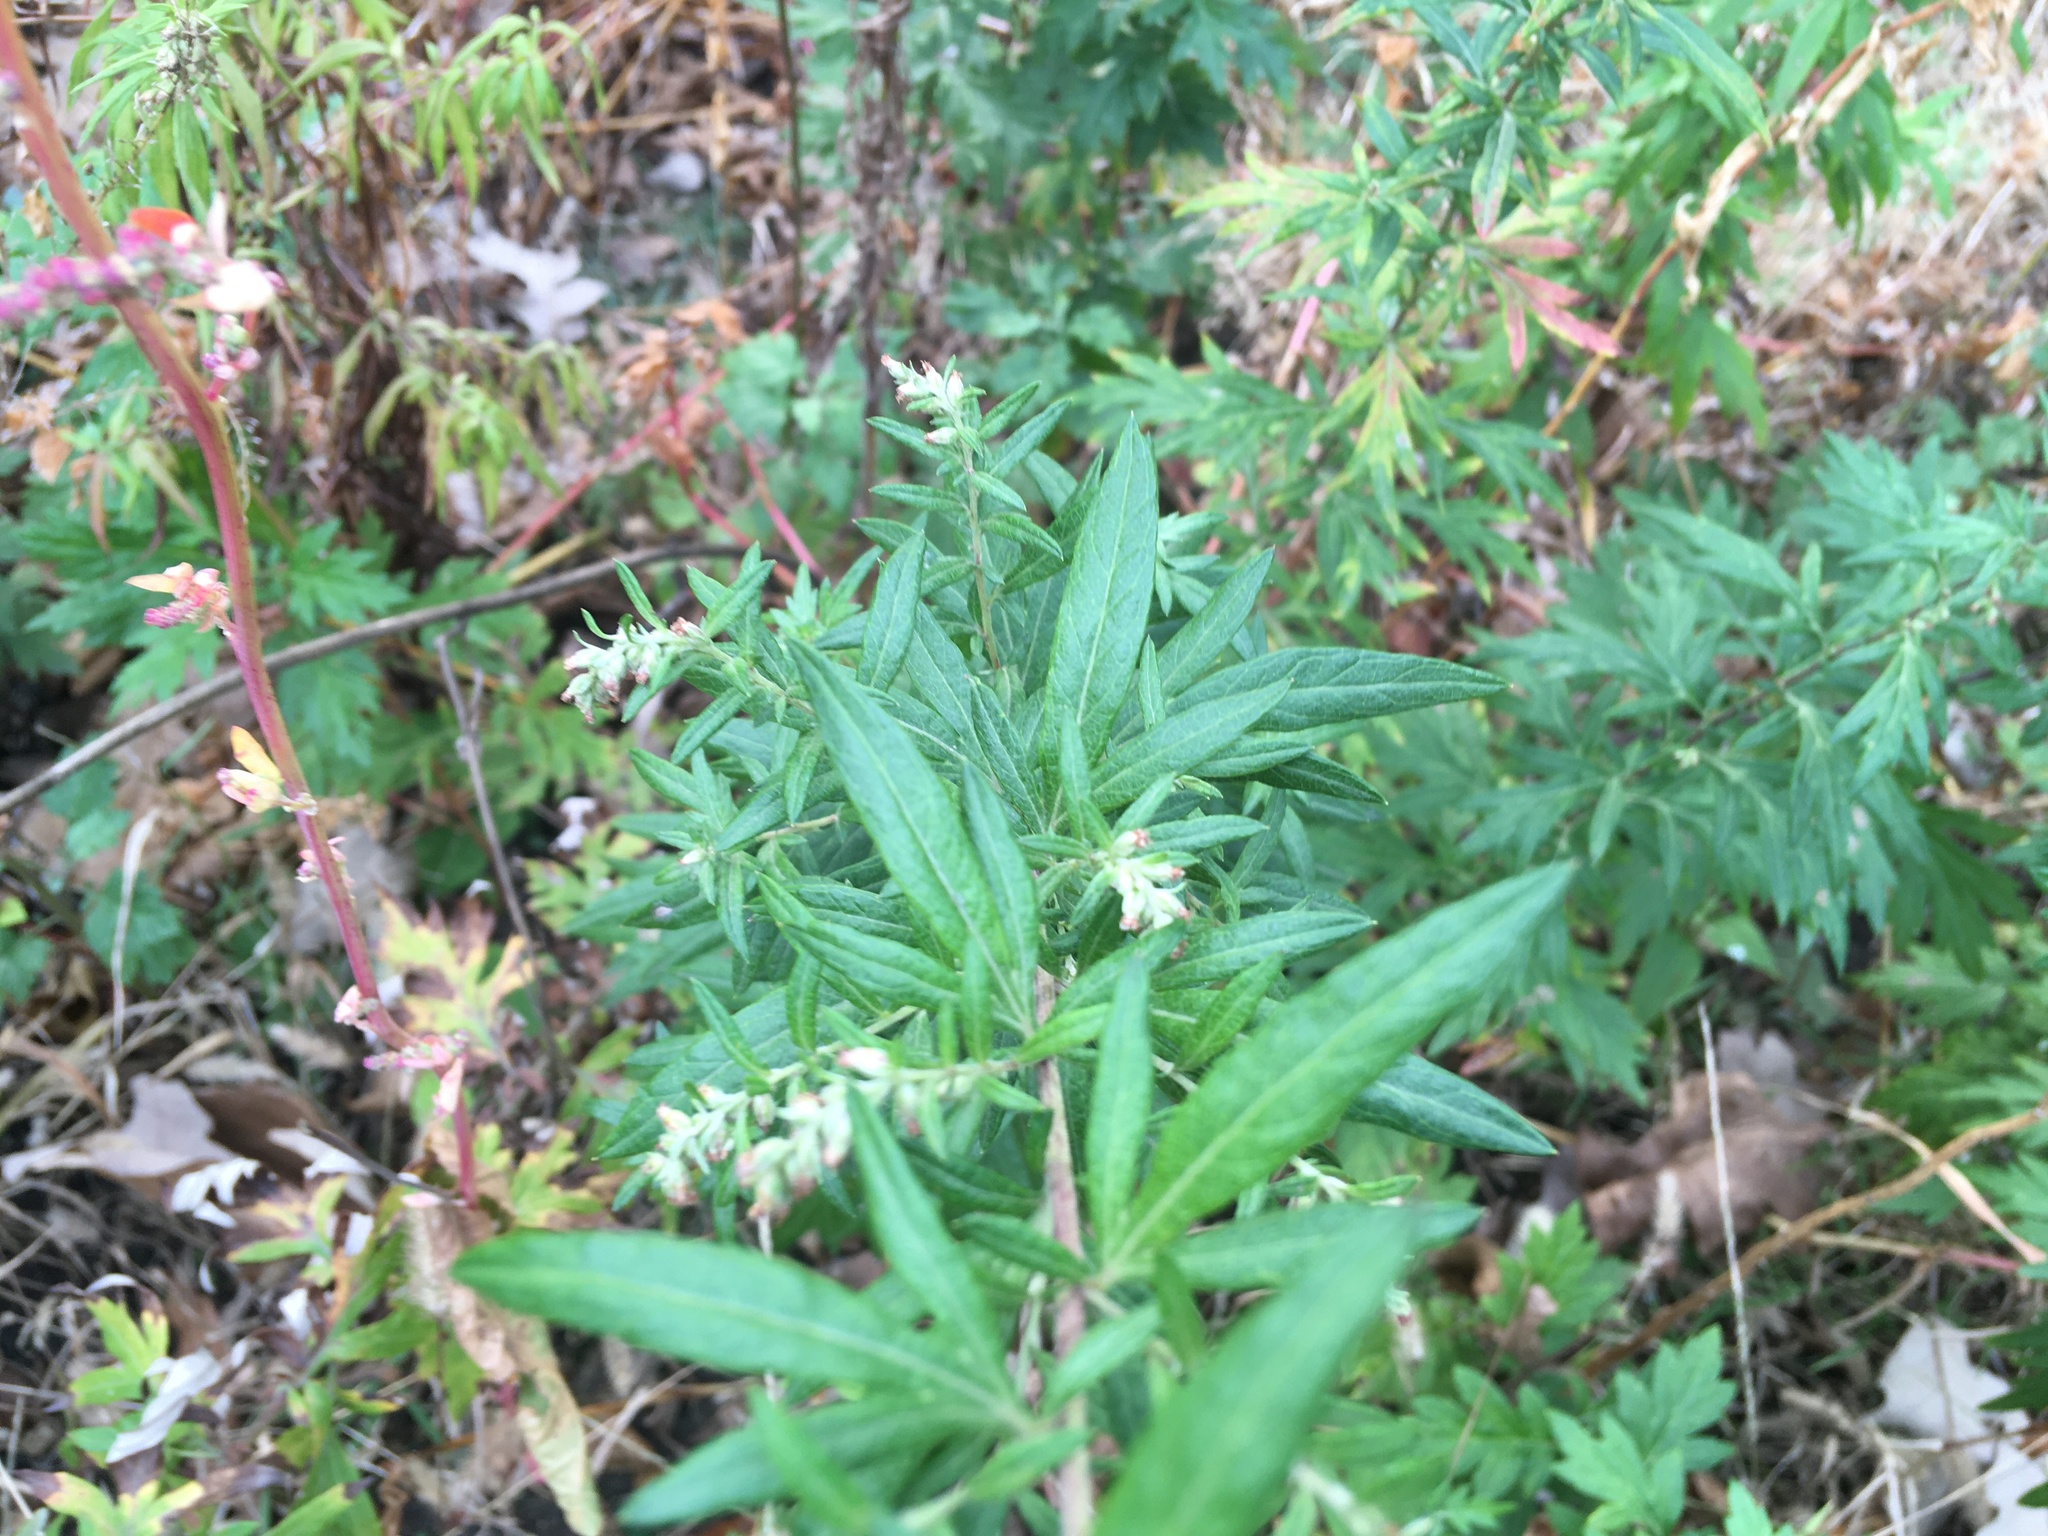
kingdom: Plantae
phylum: Tracheophyta
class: Magnoliopsida
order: Asterales
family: Asteraceae
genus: Artemisia
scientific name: Artemisia vulgaris
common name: Mugwort
